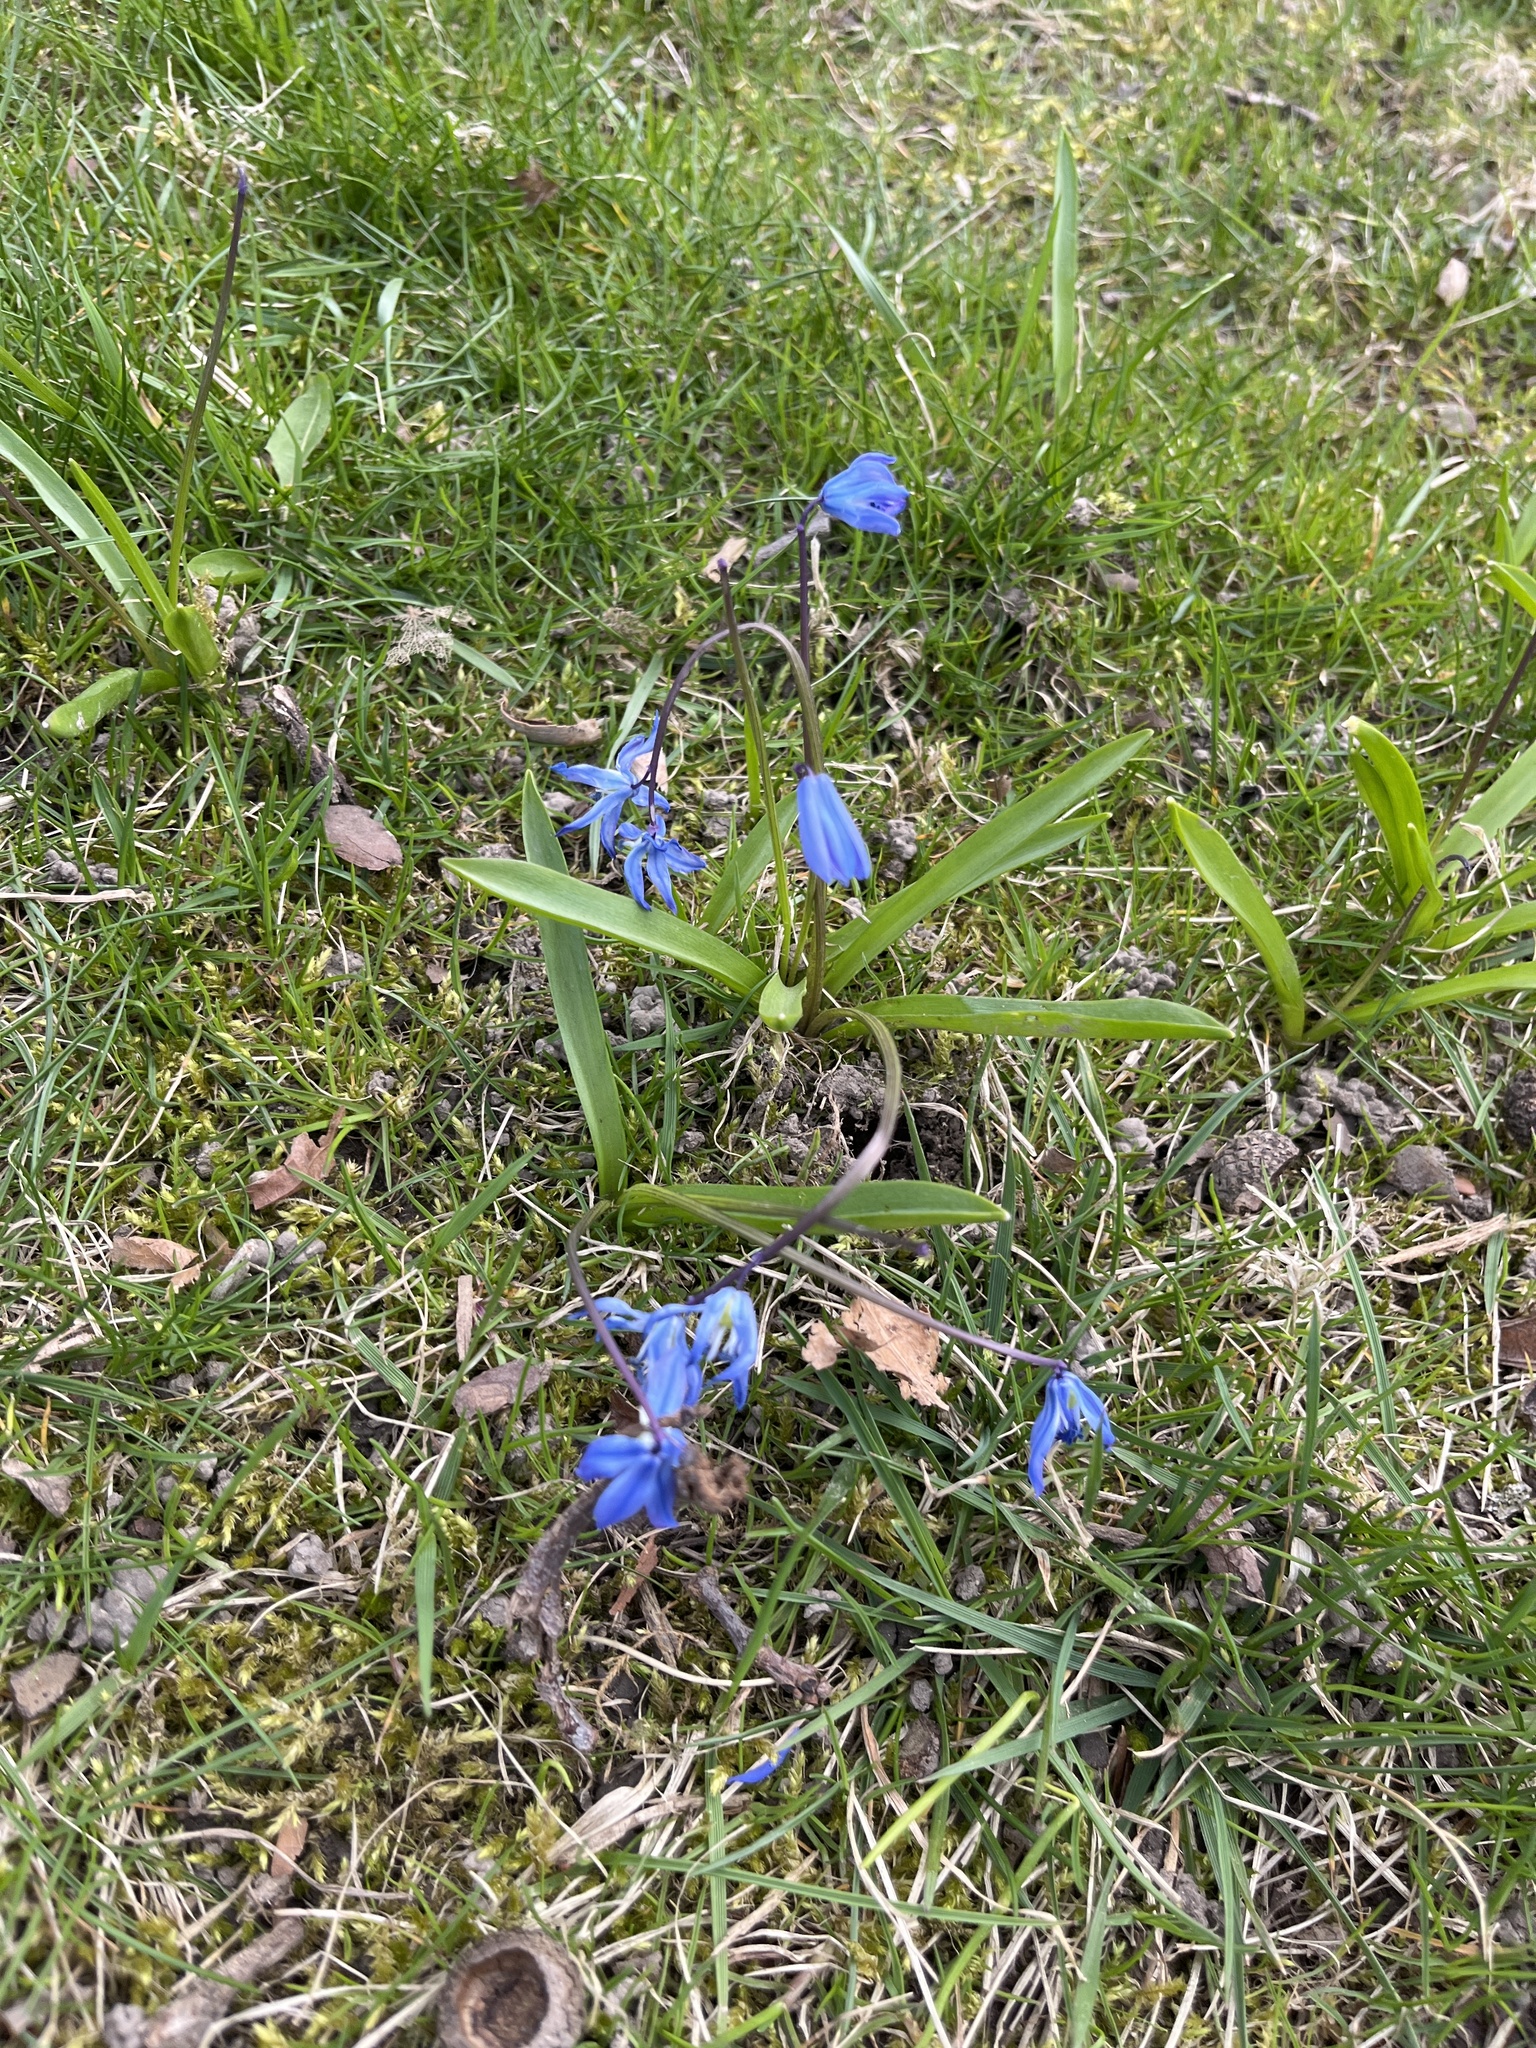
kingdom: Plantae
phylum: Tracheophyta
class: Liliopsida
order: Asparagales
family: Asparagaceae
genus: Scilla
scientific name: Scilla siberica
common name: Siberian squill
